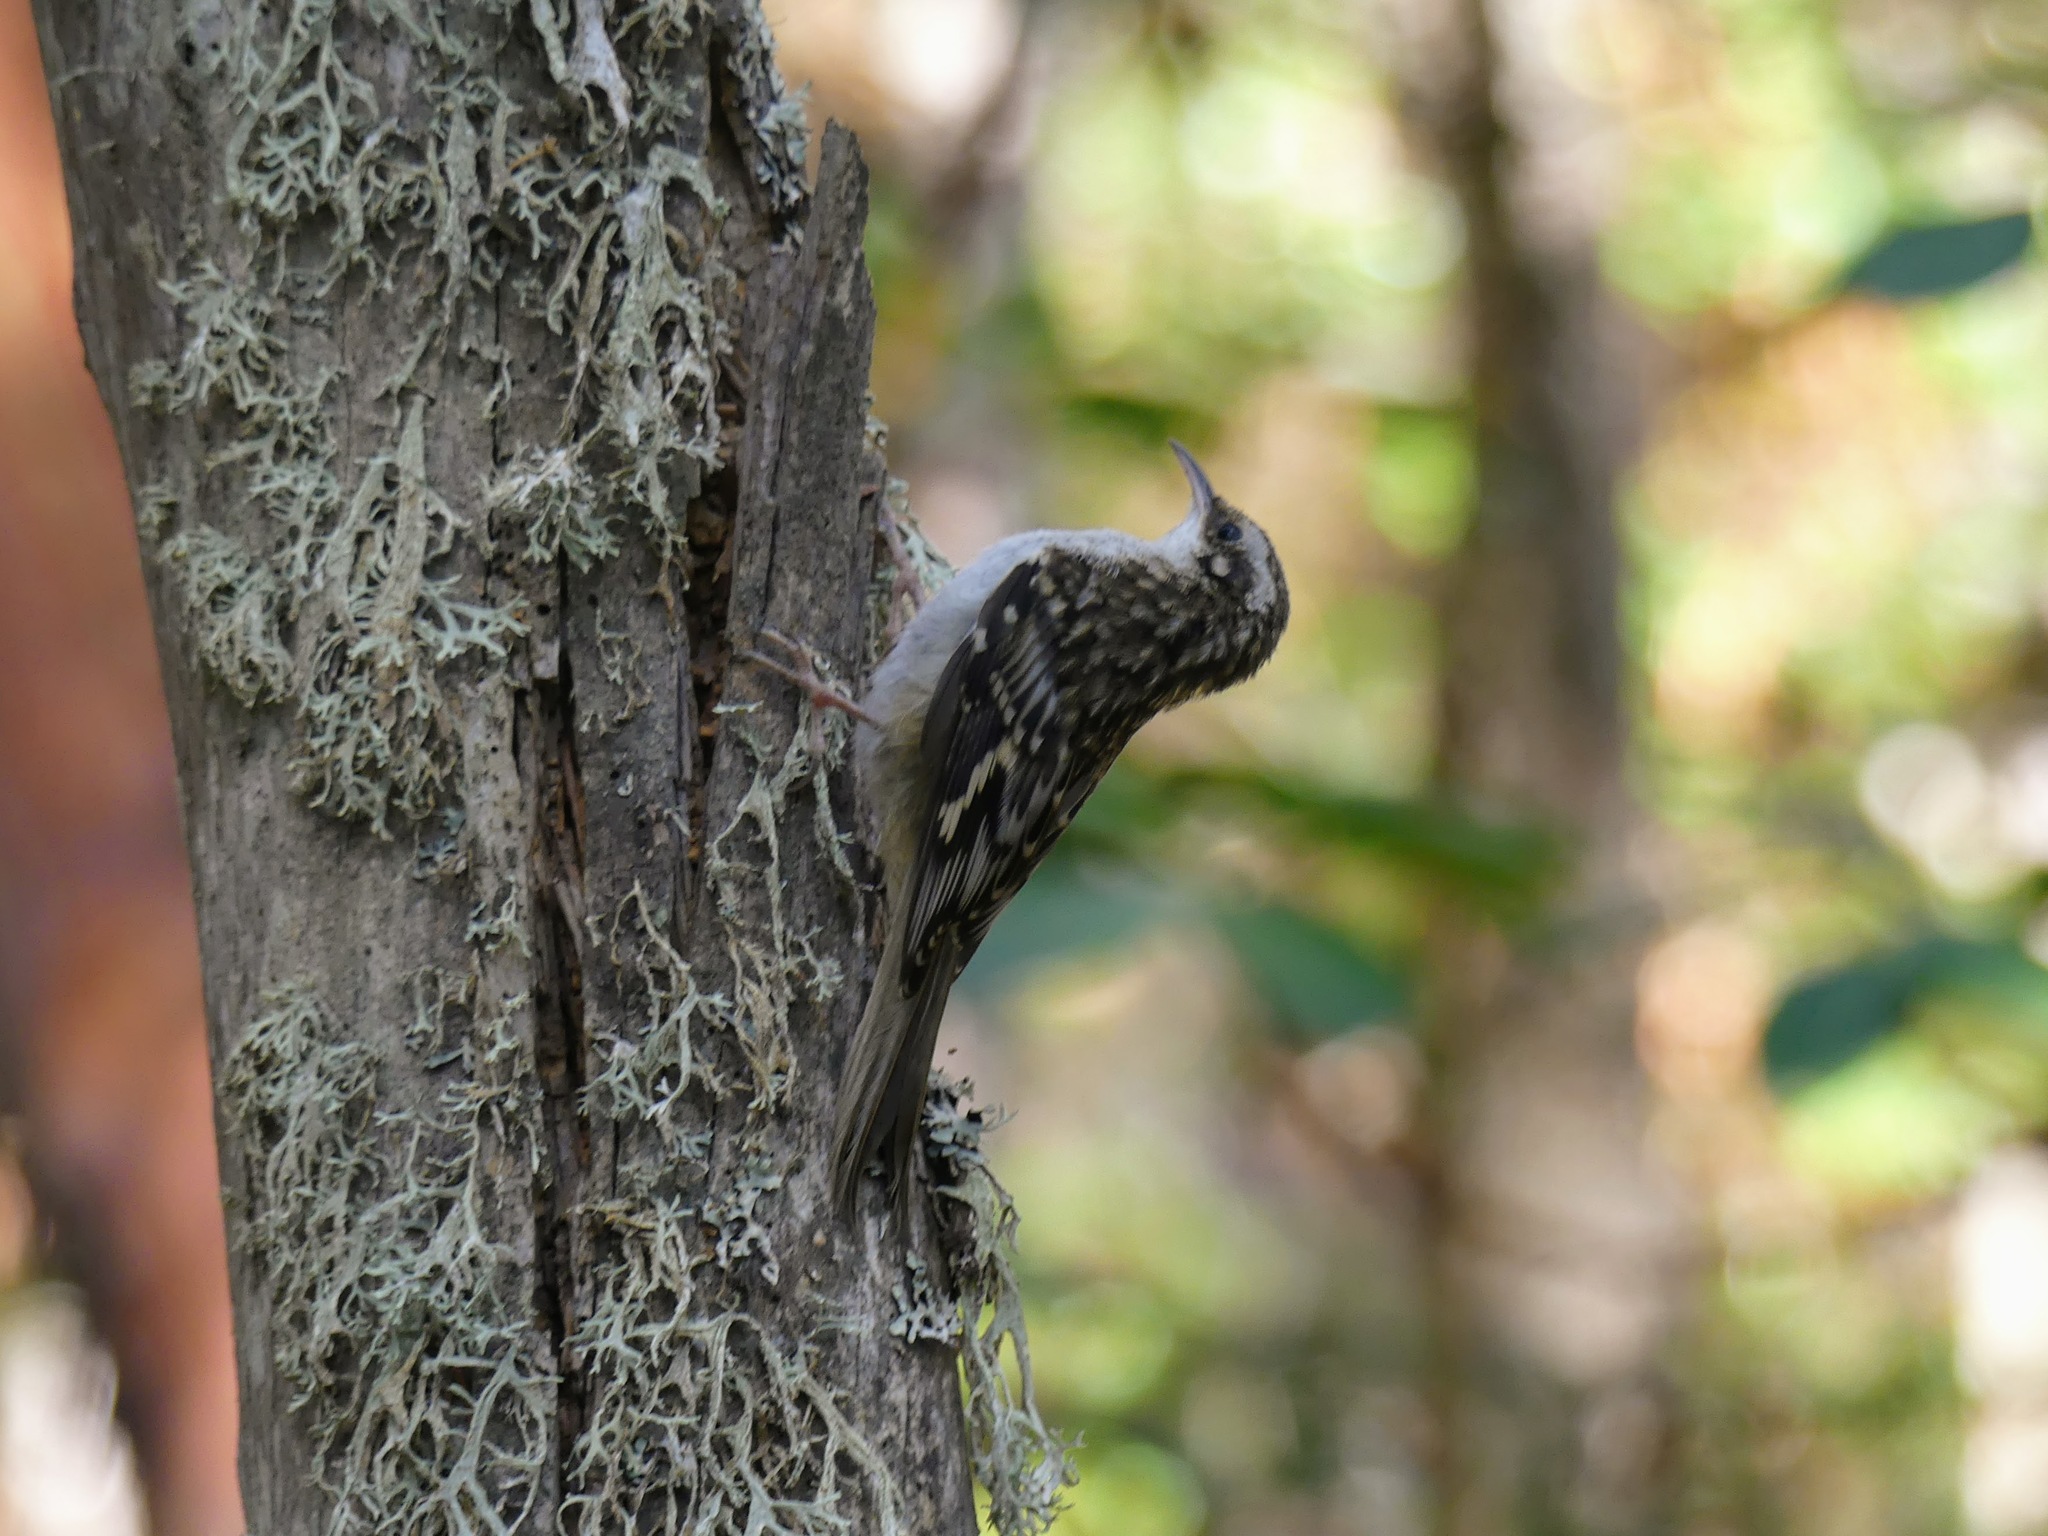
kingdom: Animalia
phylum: Chordata
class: Aves
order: Passeriformes
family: Certhiidae
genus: Certhia
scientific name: Certhia americana
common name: Brown creeper
